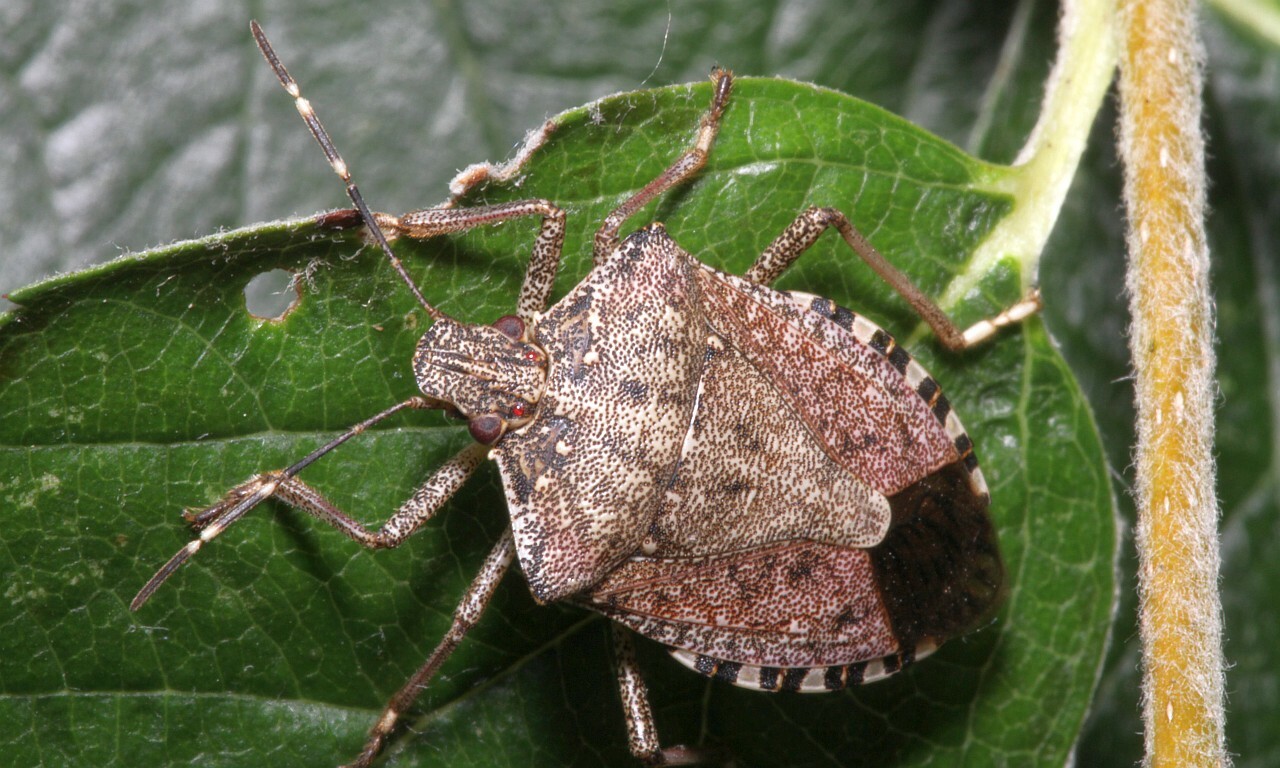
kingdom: Animalia
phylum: Arthropoda
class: Insecta
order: Hemiptera
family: Pentatomidae
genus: Halyomorpha
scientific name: Halyomorpha halys
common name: Brown marmorated stink bug
